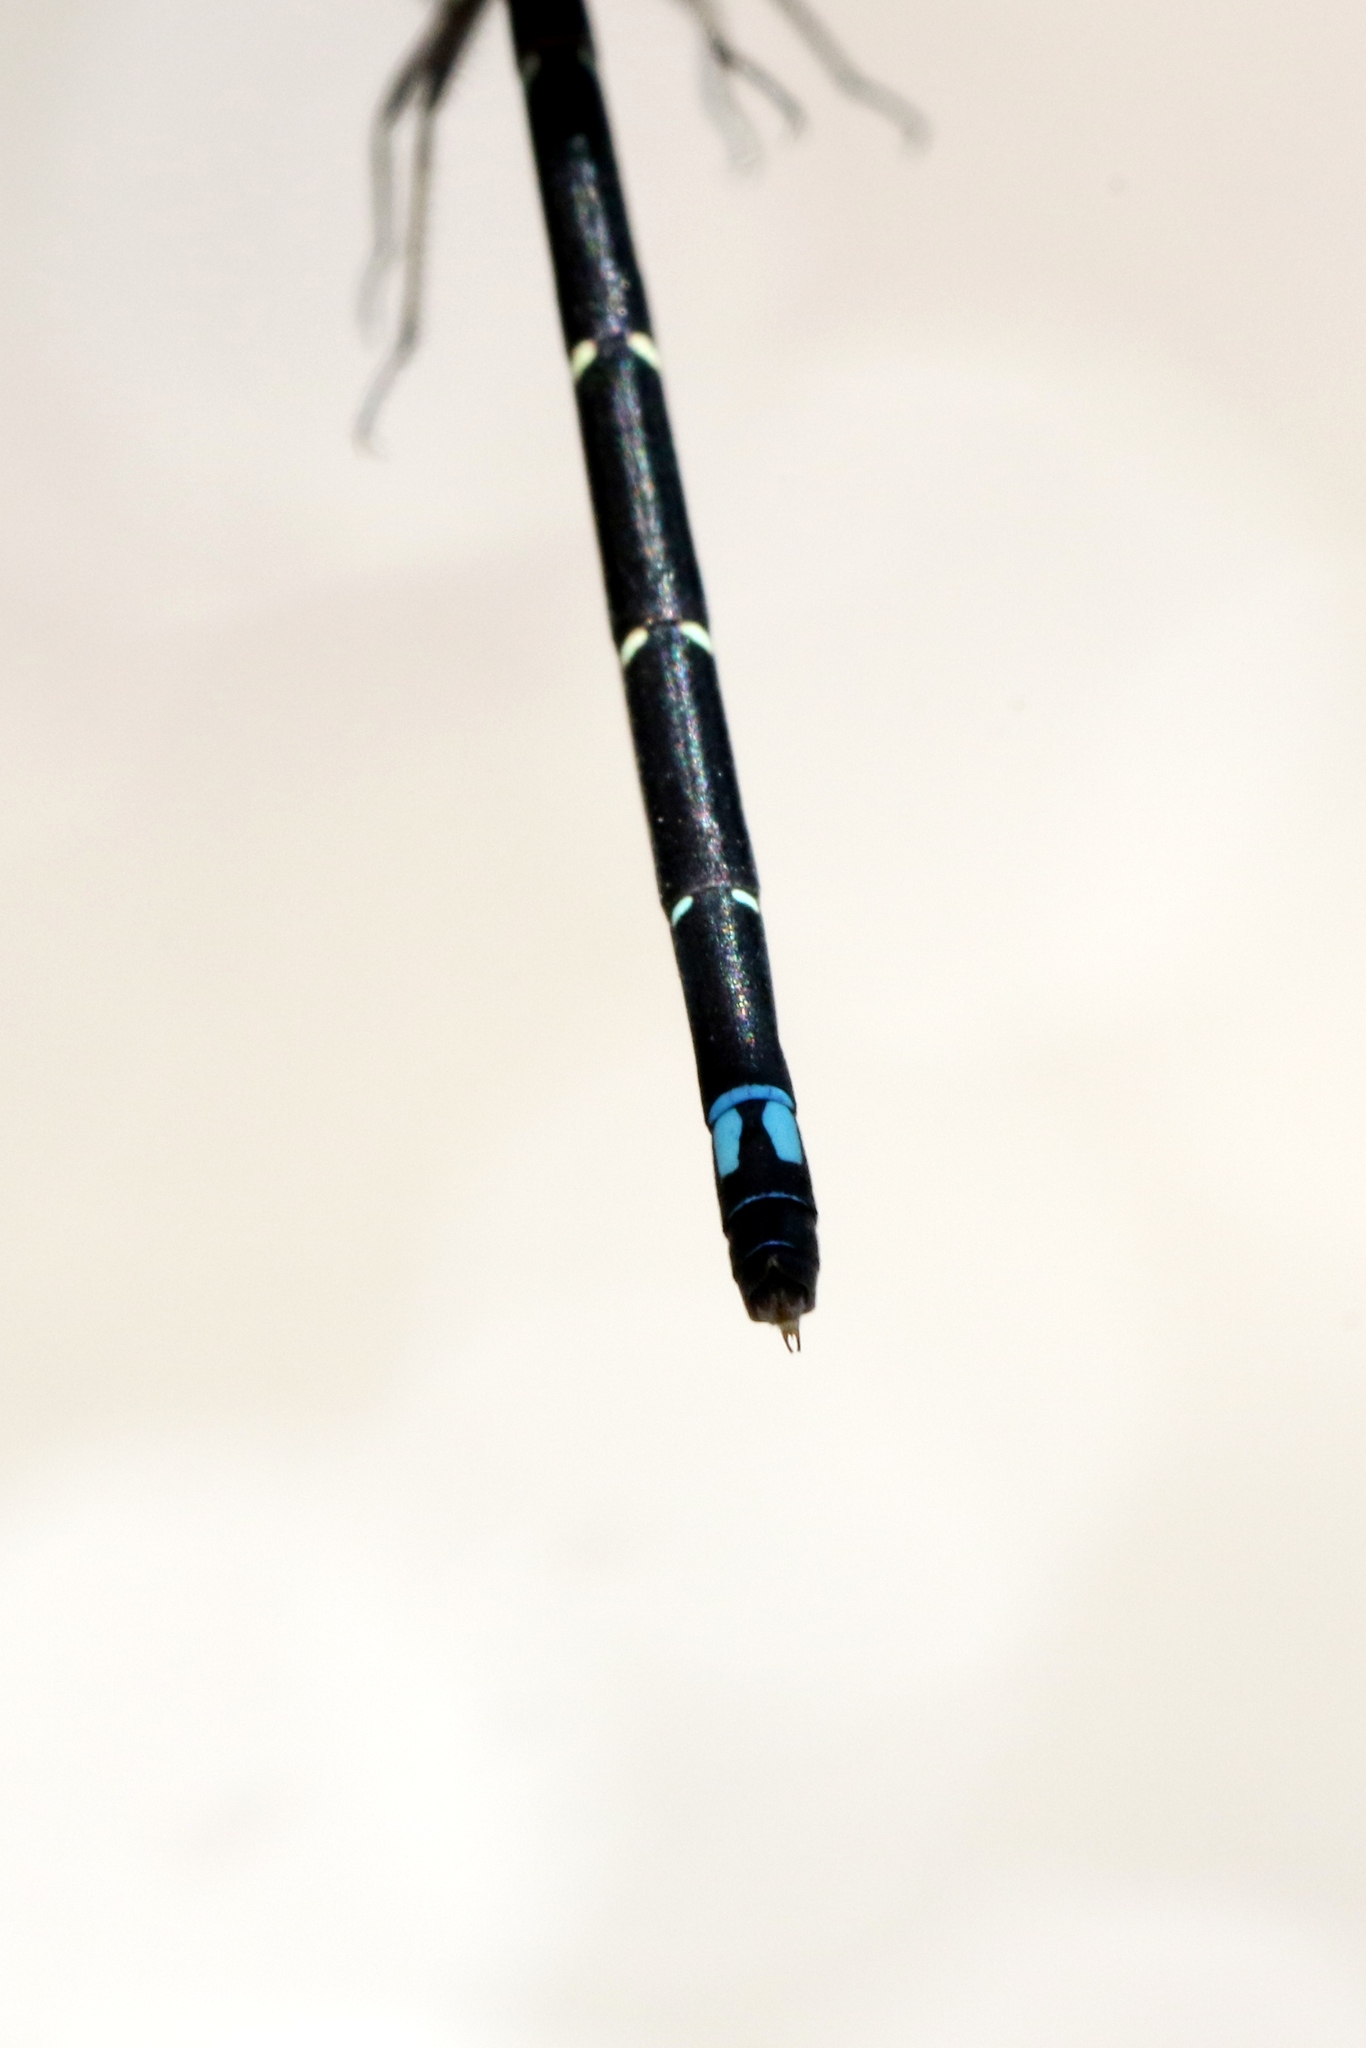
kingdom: Animalia
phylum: Arthropoda
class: Insecta
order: Odonata
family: Coenagrionidae
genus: Enallagma
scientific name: Enallagma geminatum
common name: Skimming bluet
